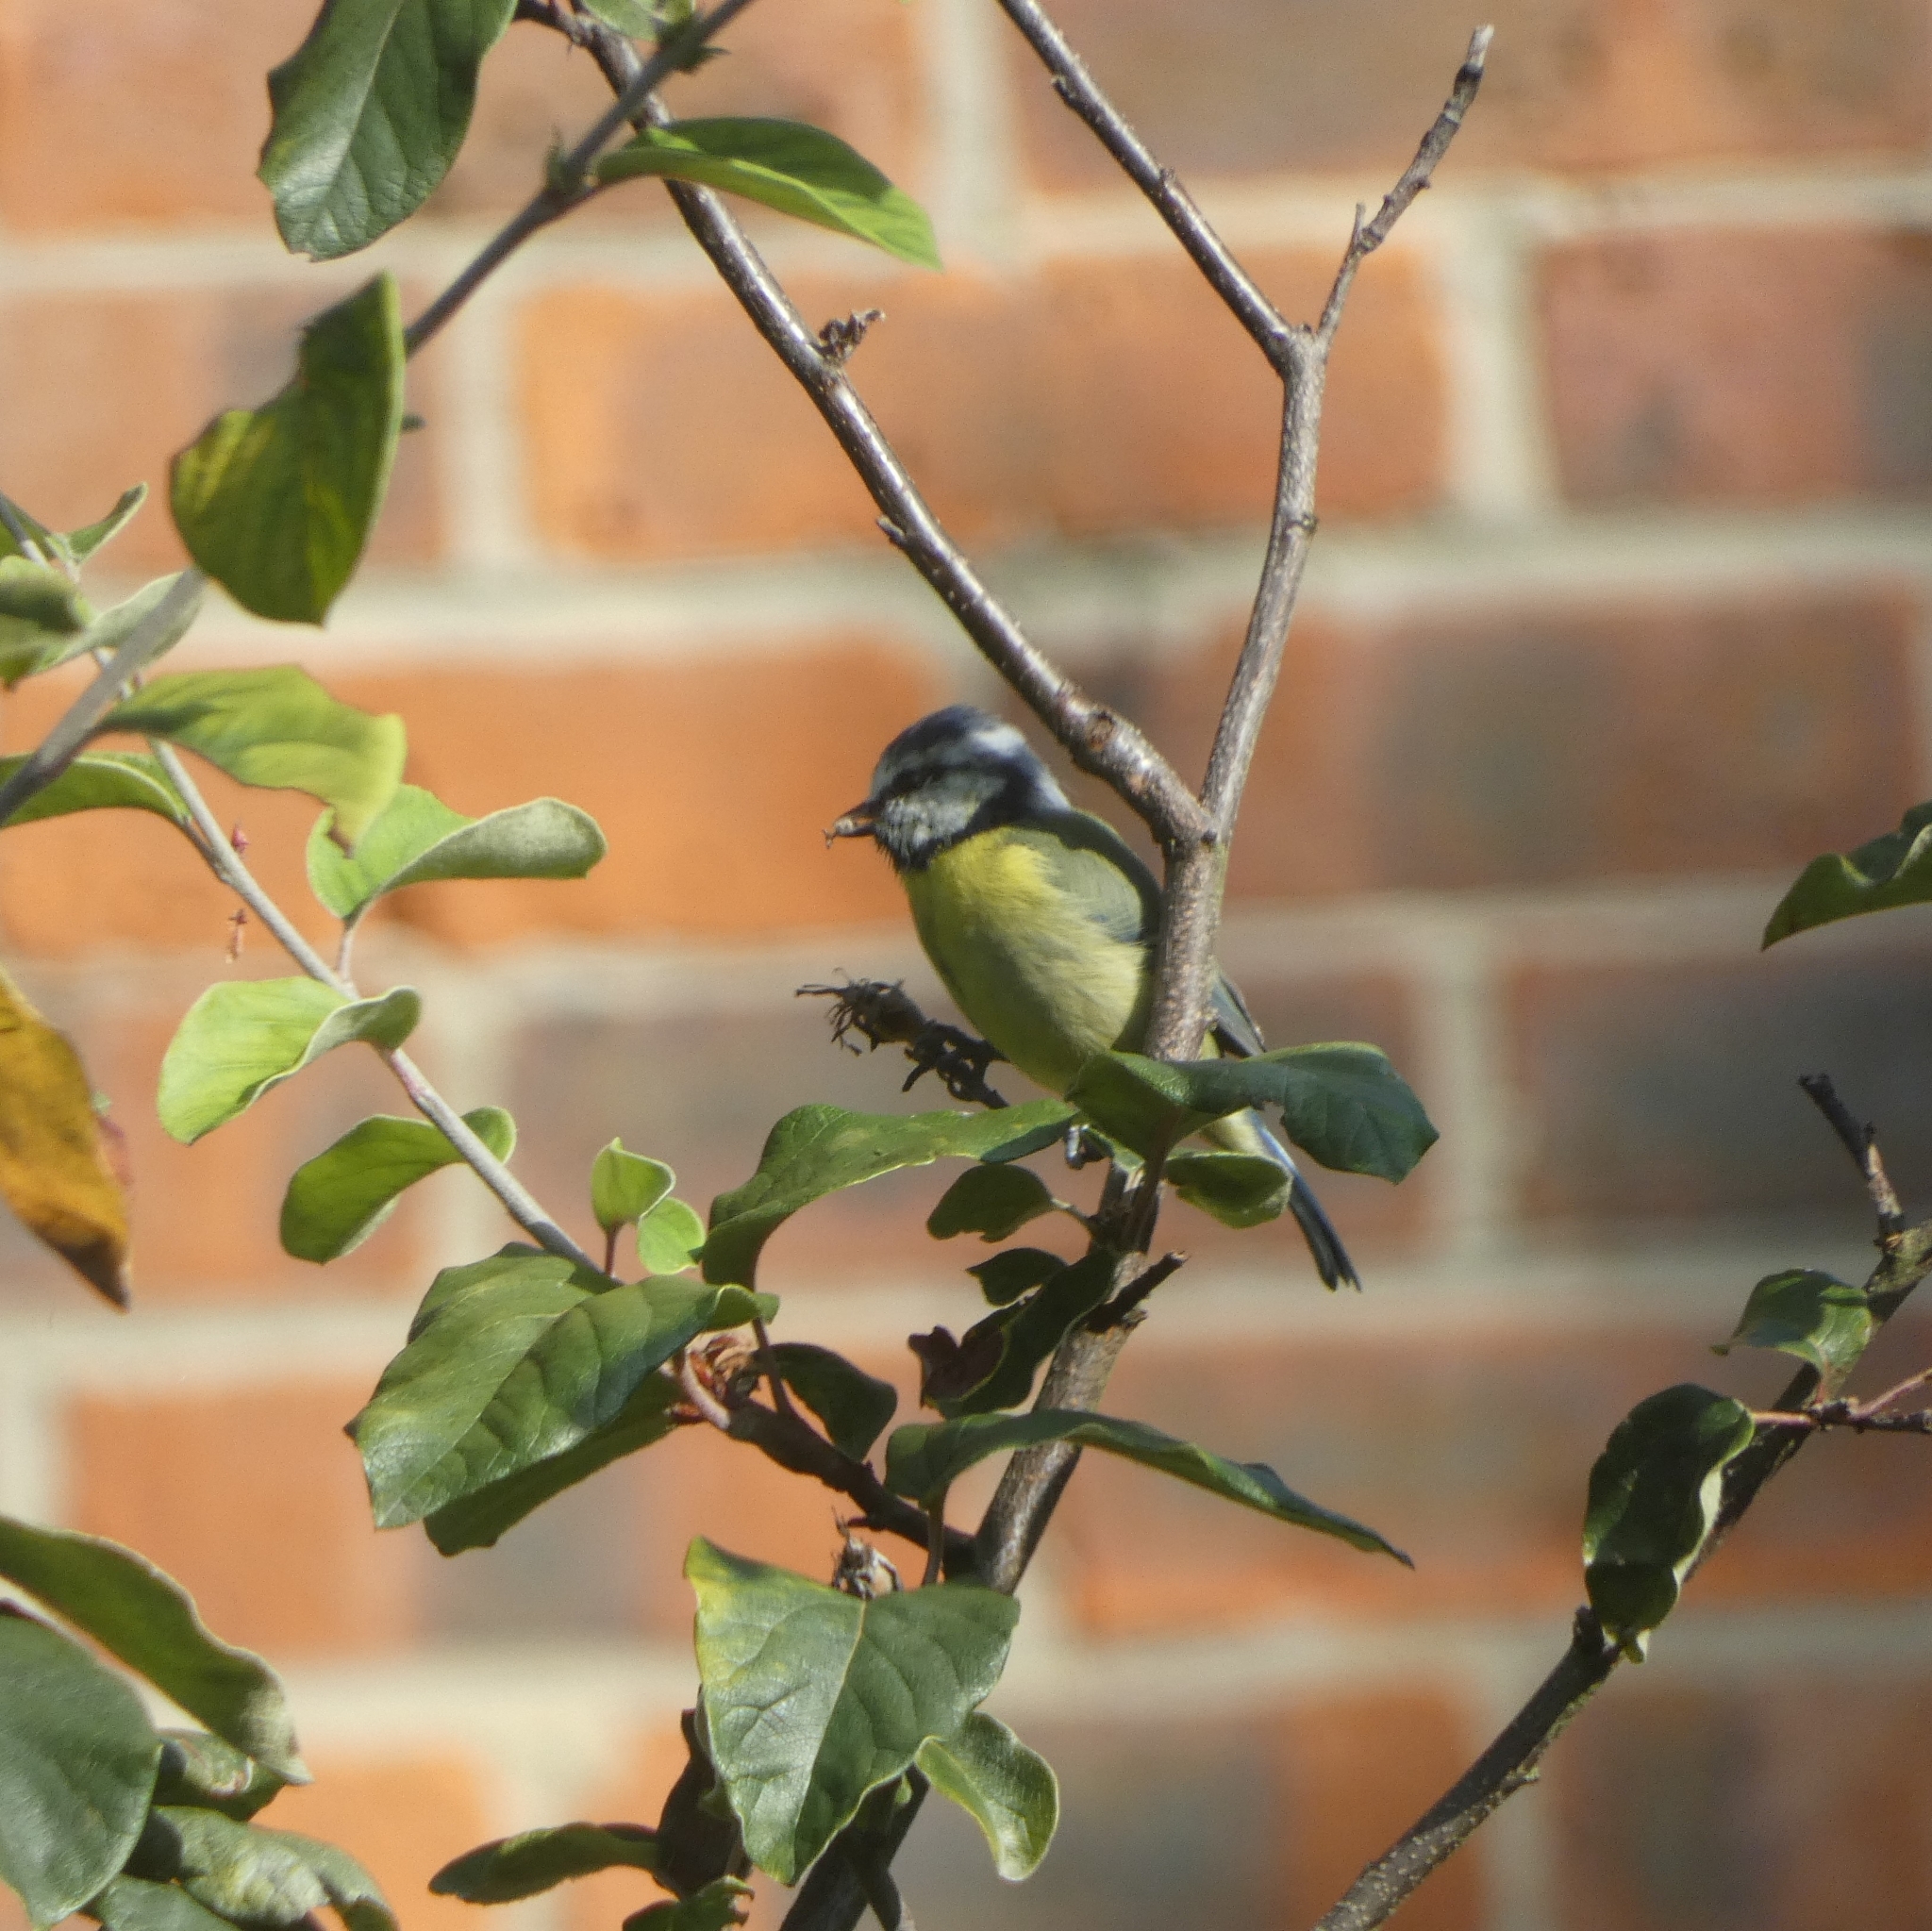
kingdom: Animalia
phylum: Chordata
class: Aves
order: Passeriformes
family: Paridae
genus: Cyanistes
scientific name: Cyanistes caeruleus
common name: Eurasian blue tit
